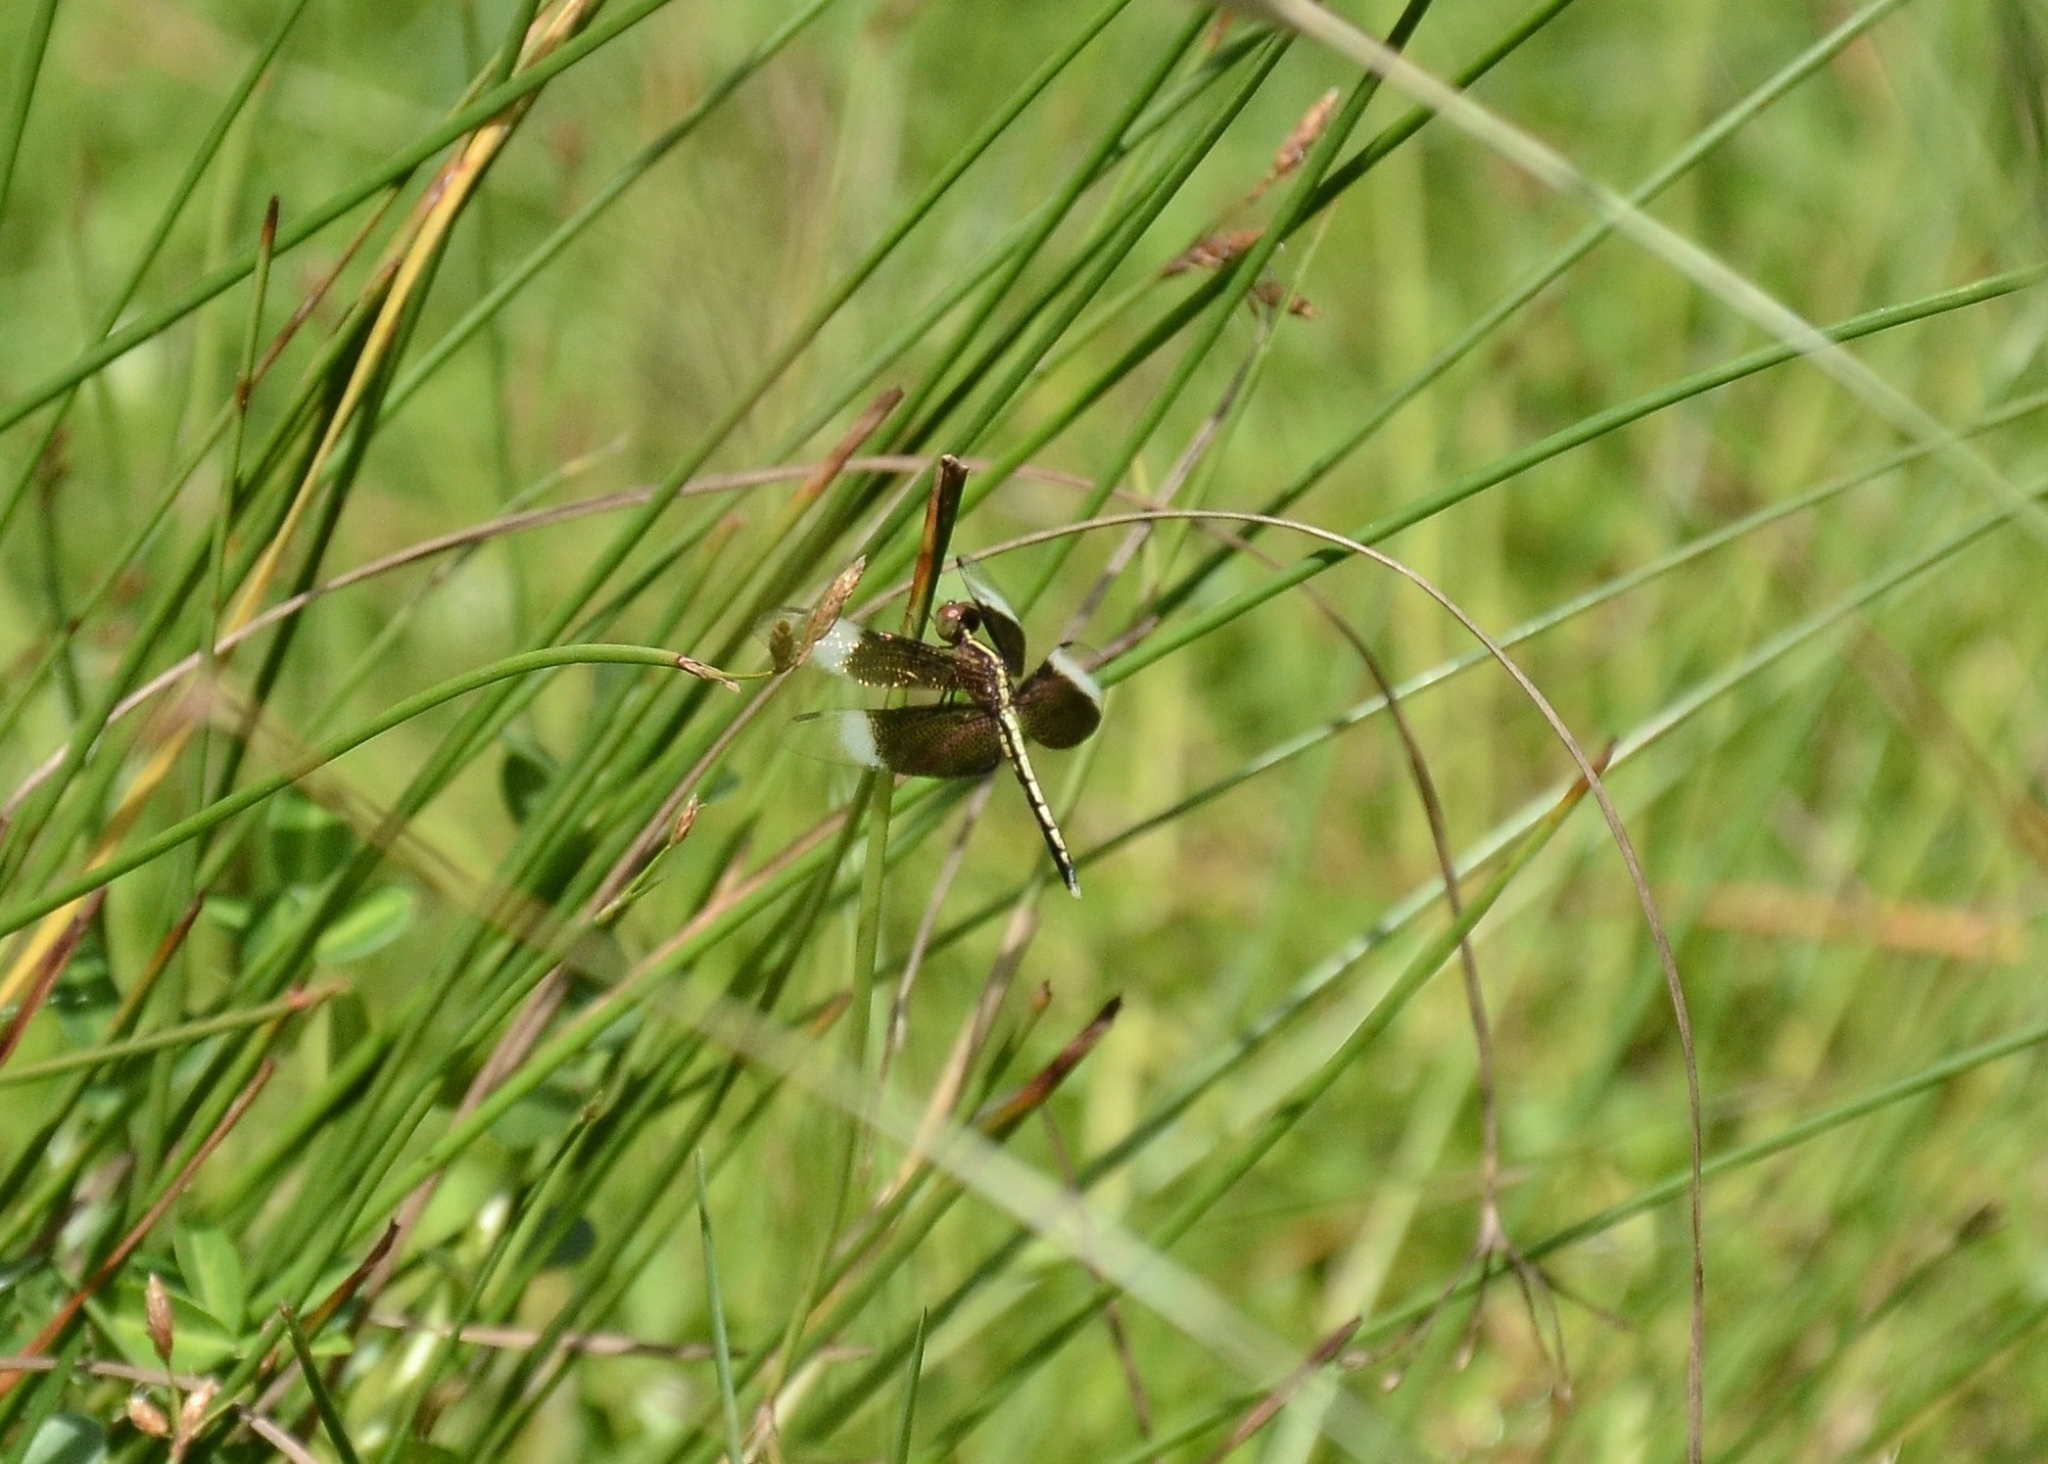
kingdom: Animalia
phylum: Arthropoda
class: Insecta
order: Odonata
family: Libellulidae
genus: Neurothemis
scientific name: Neurothemis tullia
